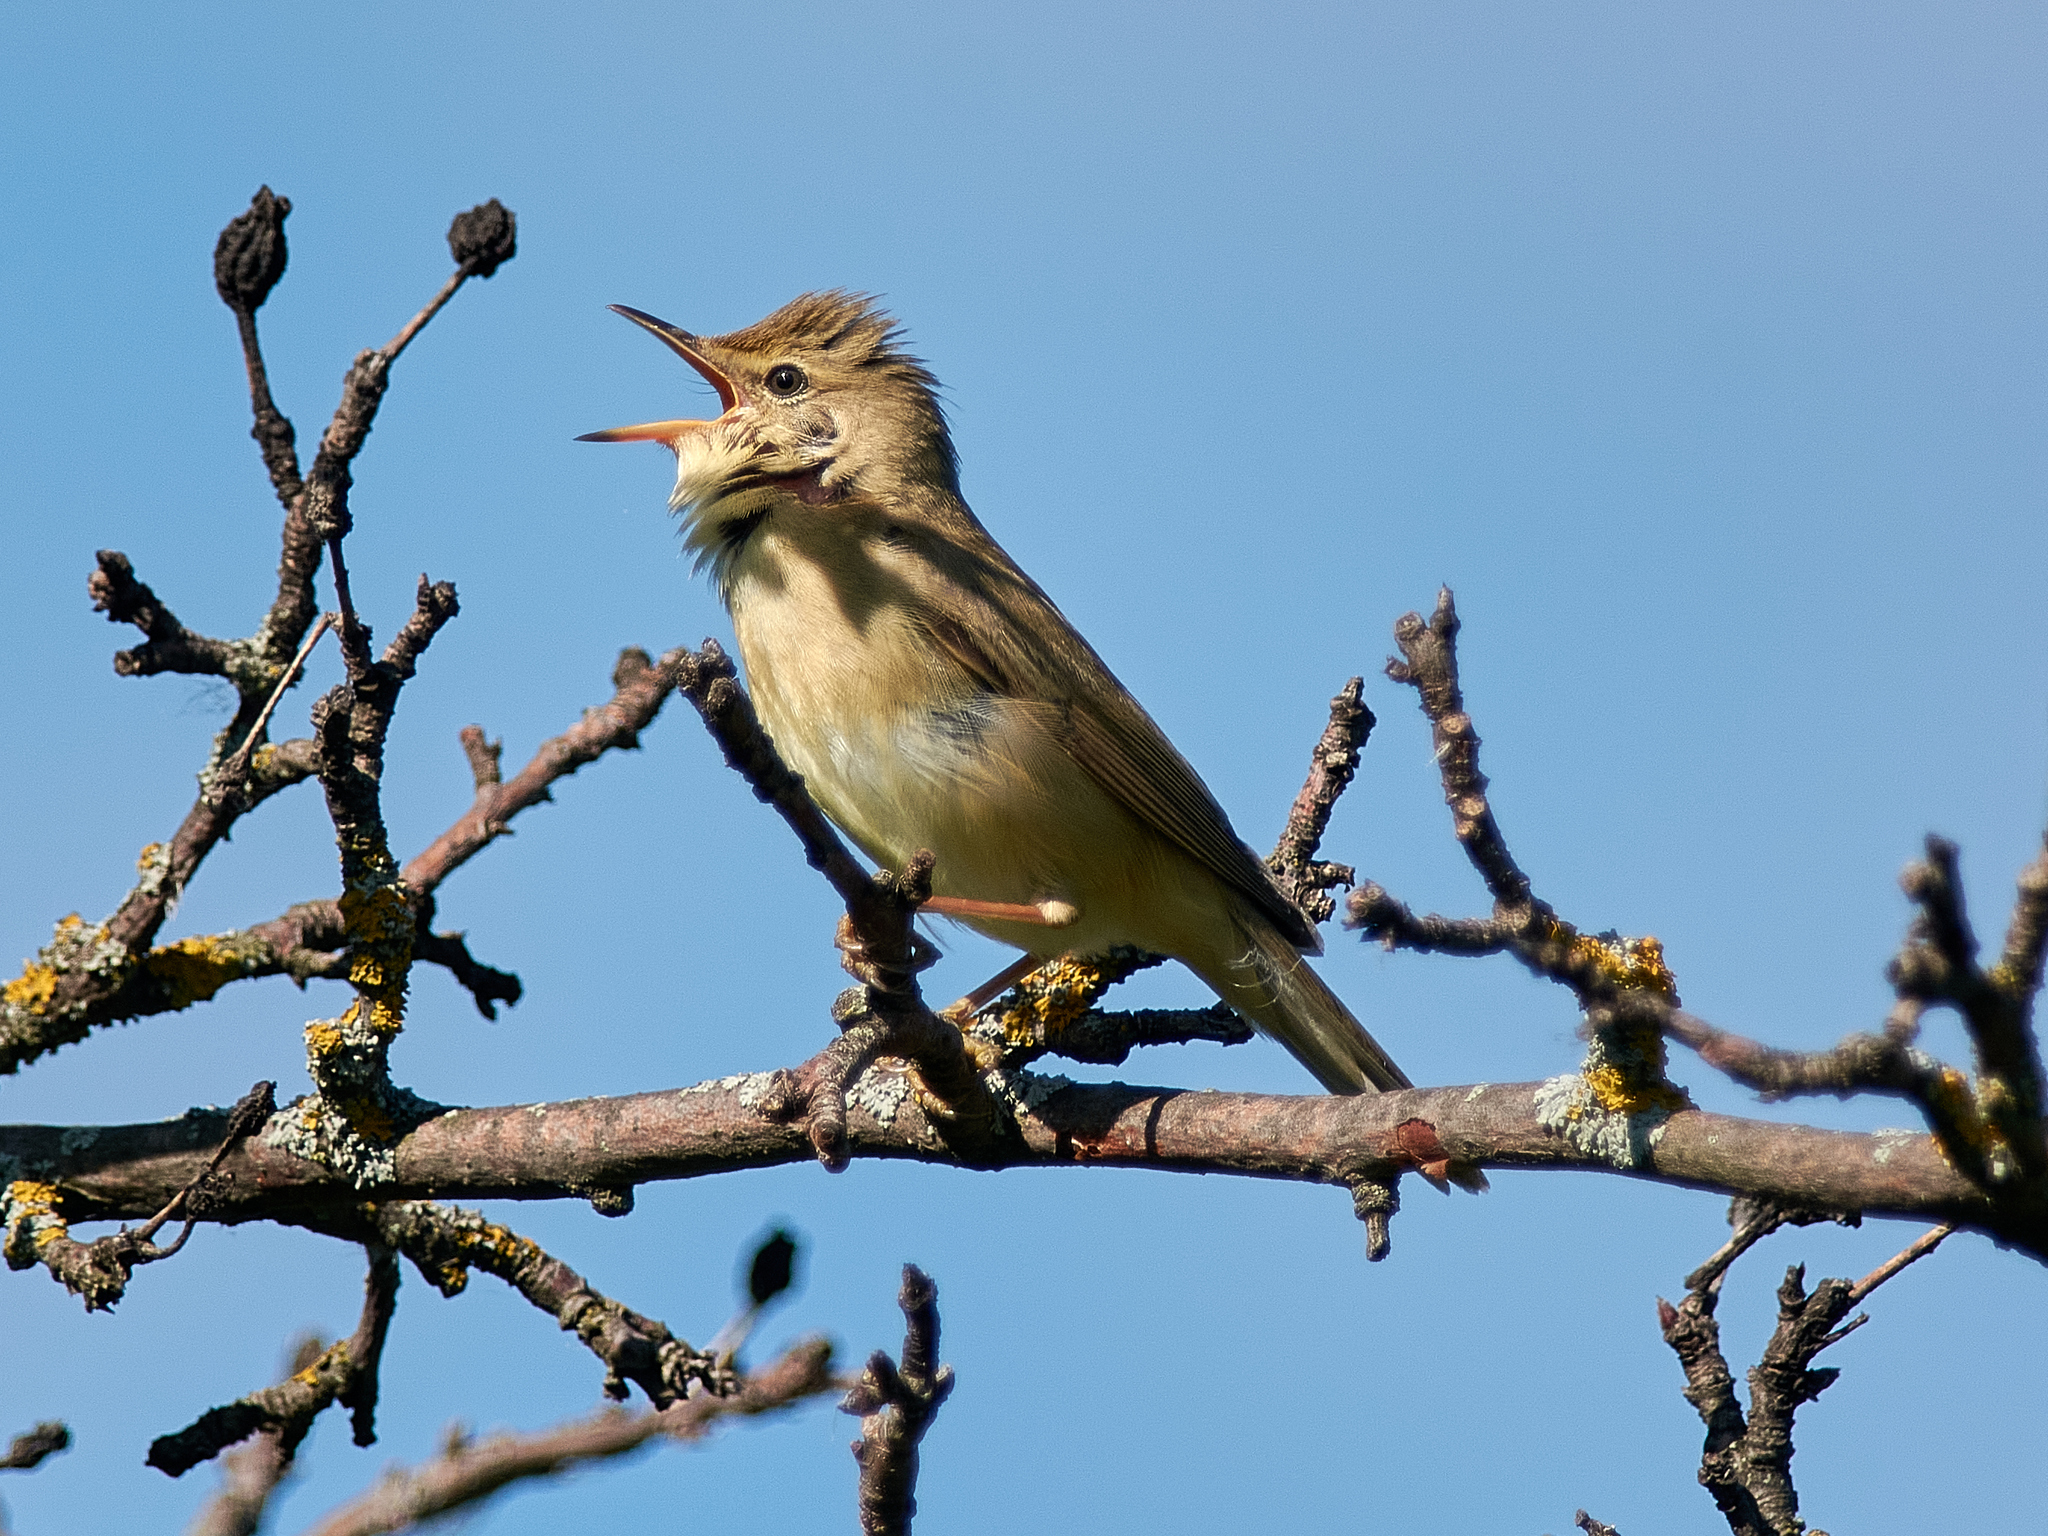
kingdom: Animalia
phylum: Chordata
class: Aves
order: Passeriformes
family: Acrocephalidae
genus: Acrocephalus
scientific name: Acrocephalus palustris
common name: Marsh warbler
